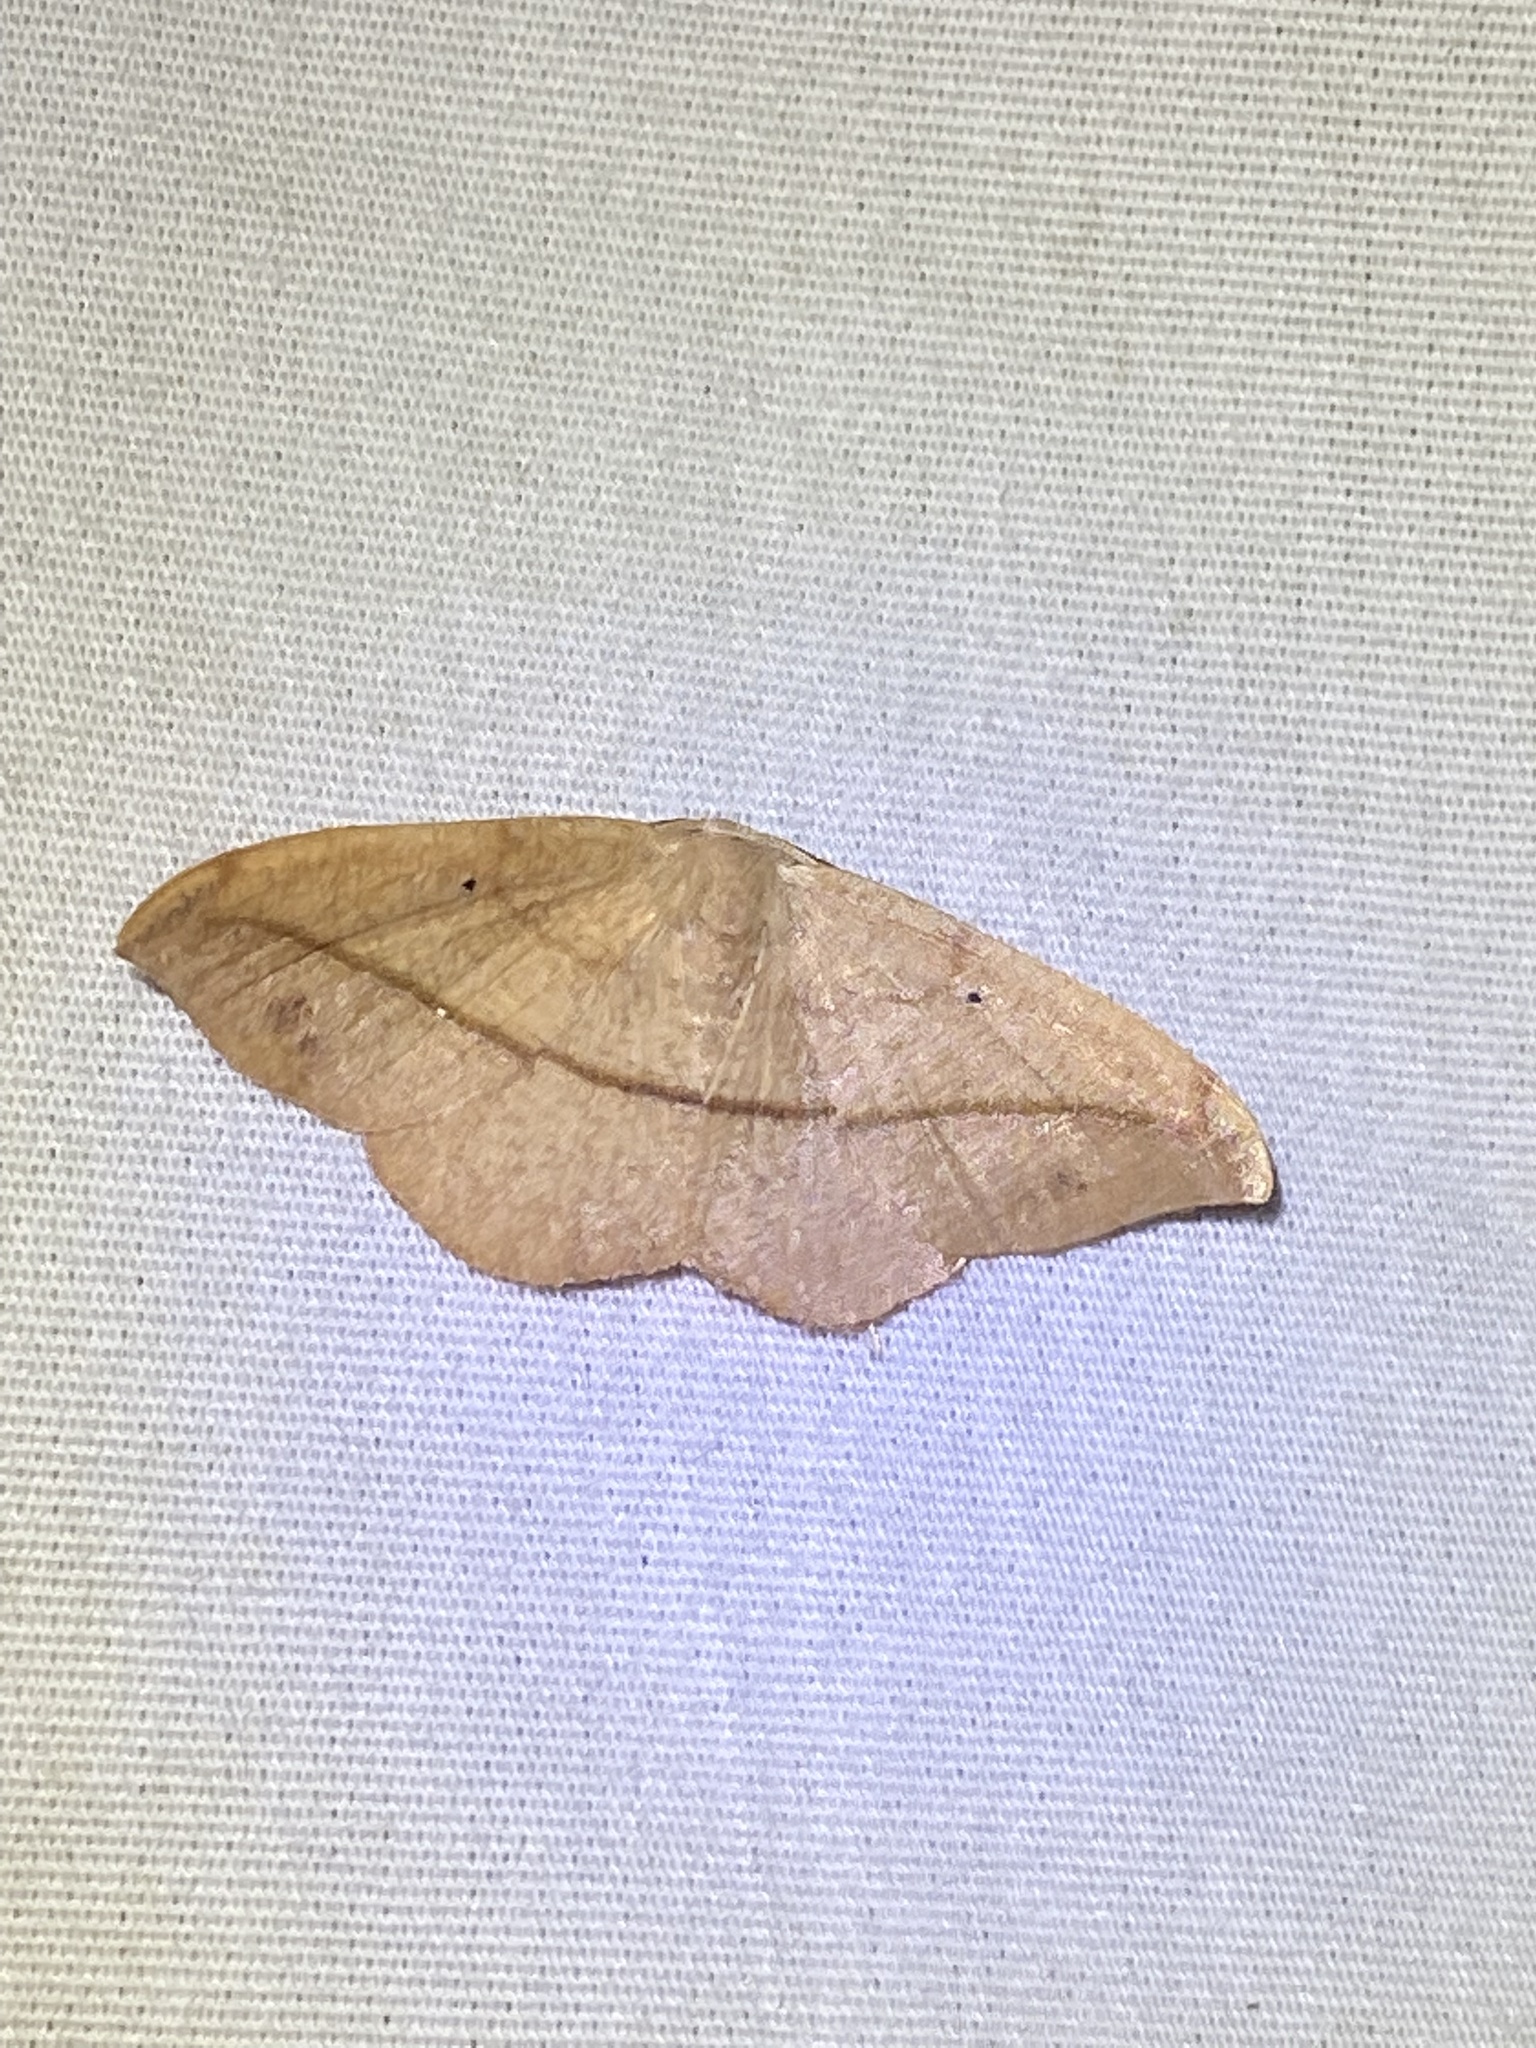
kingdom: Animalia
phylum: Arthropoda
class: Insecta
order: Lepidoptera
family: Geometridae
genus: Patalene
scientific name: Patalene olyzonaria
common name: Juniper geometer moth
